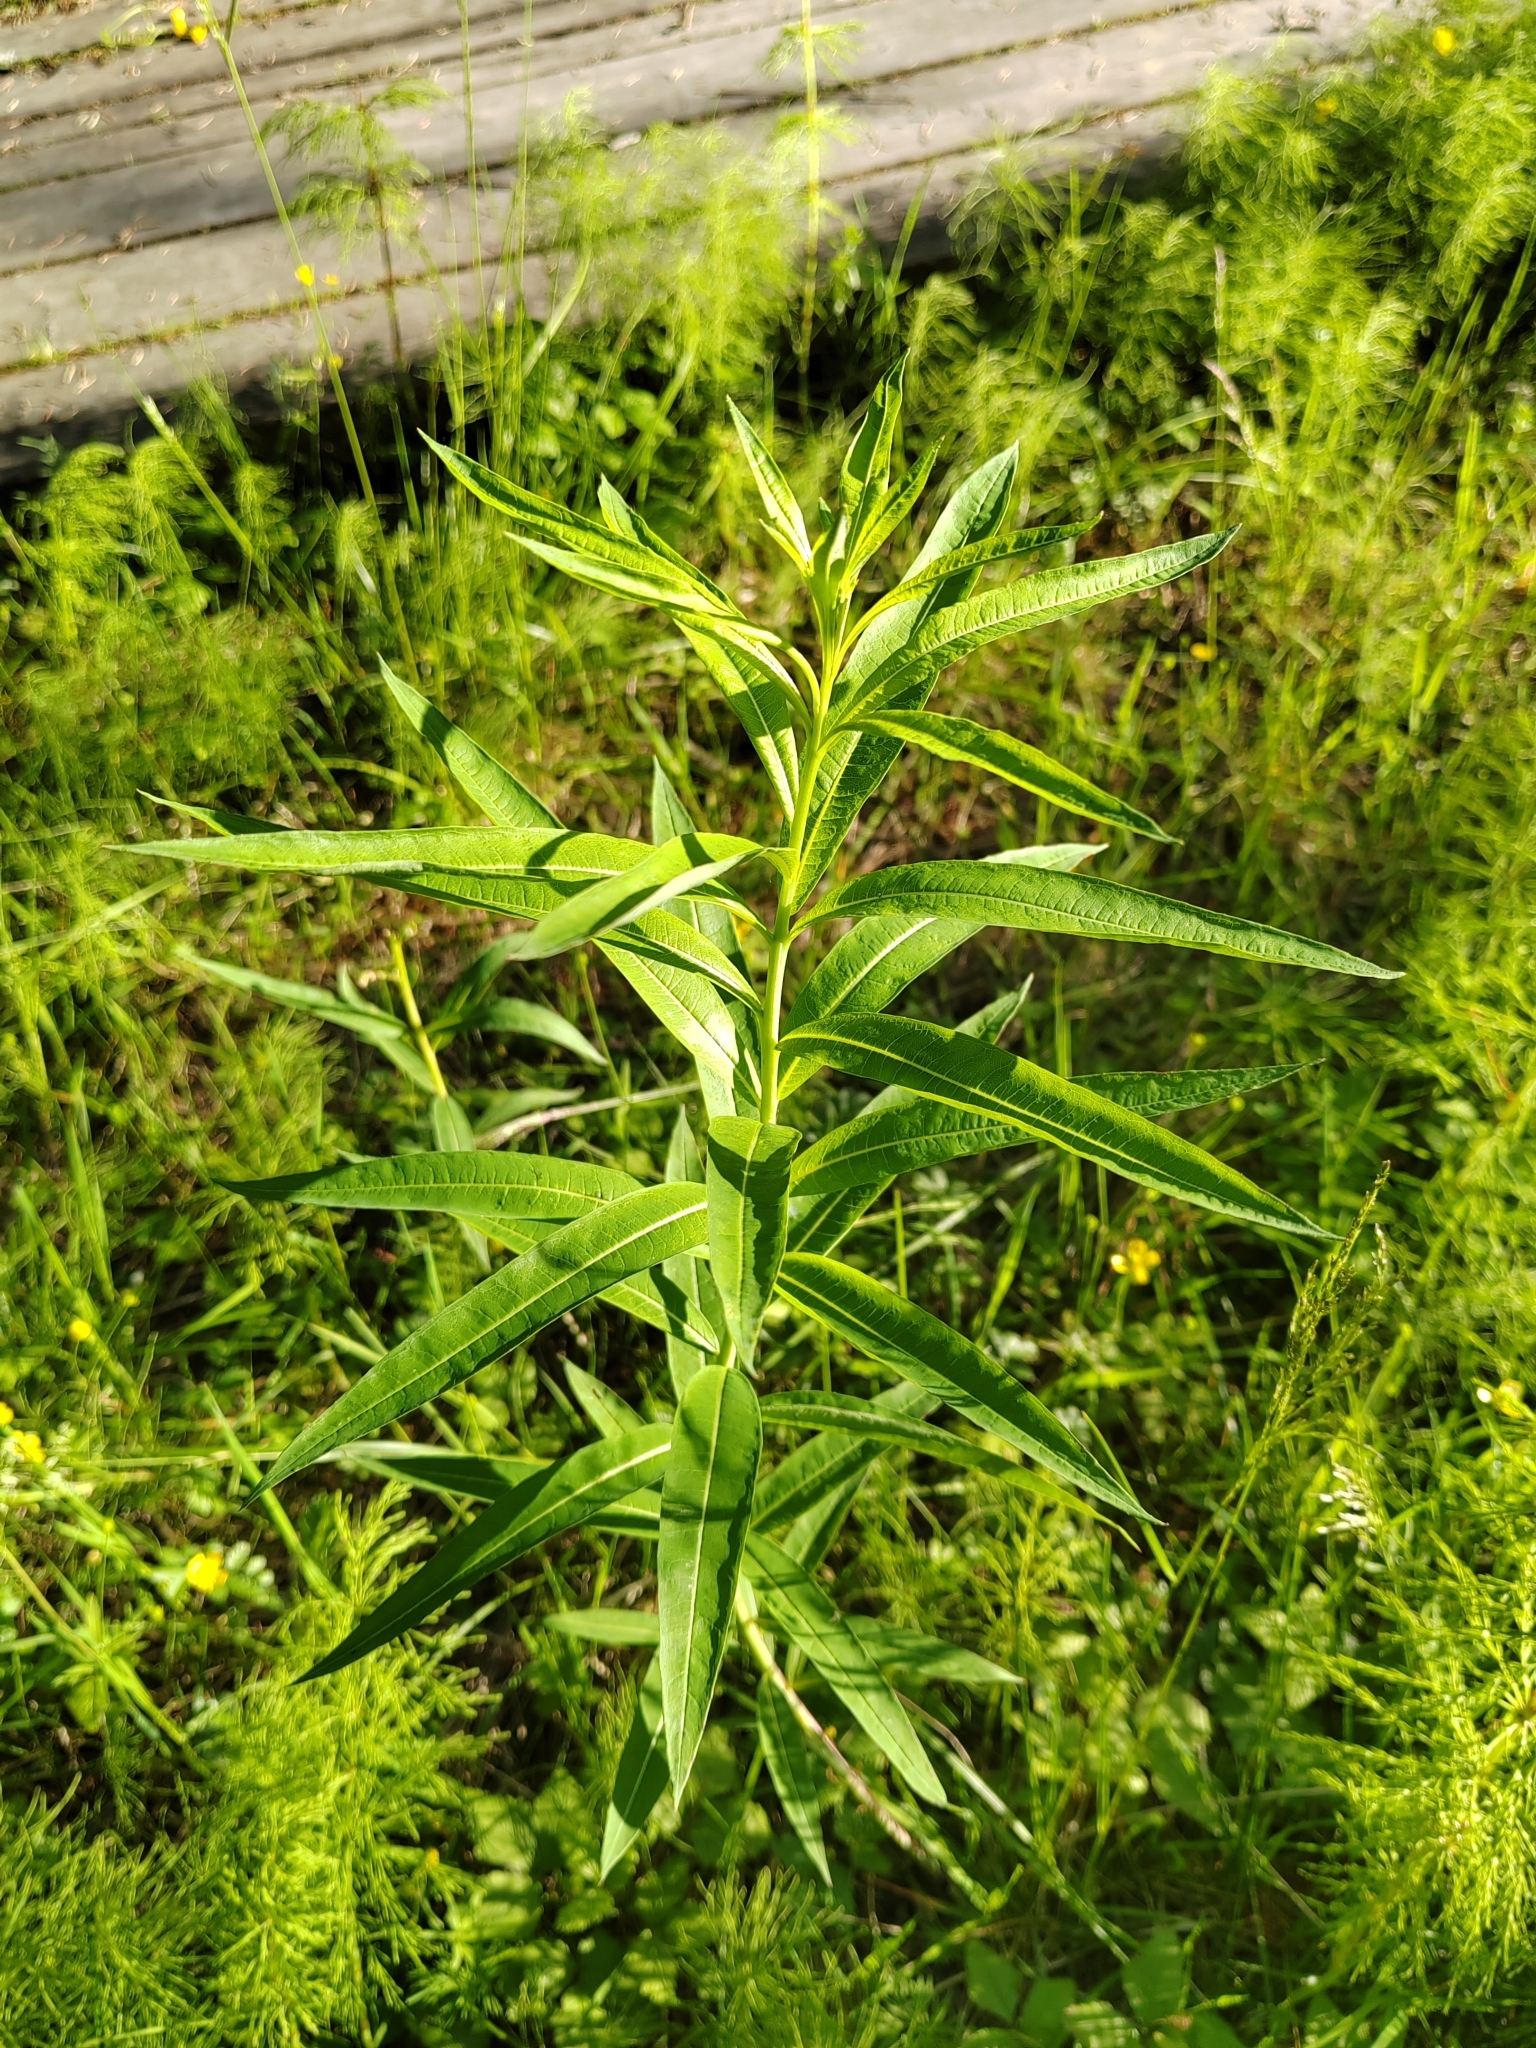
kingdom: Plantae
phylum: Tracheophyta
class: Magnoliopsida
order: Myrtales
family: Onagraceae
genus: Chamaenerion
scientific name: Chamaenerion angustifolium
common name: Fireweed
